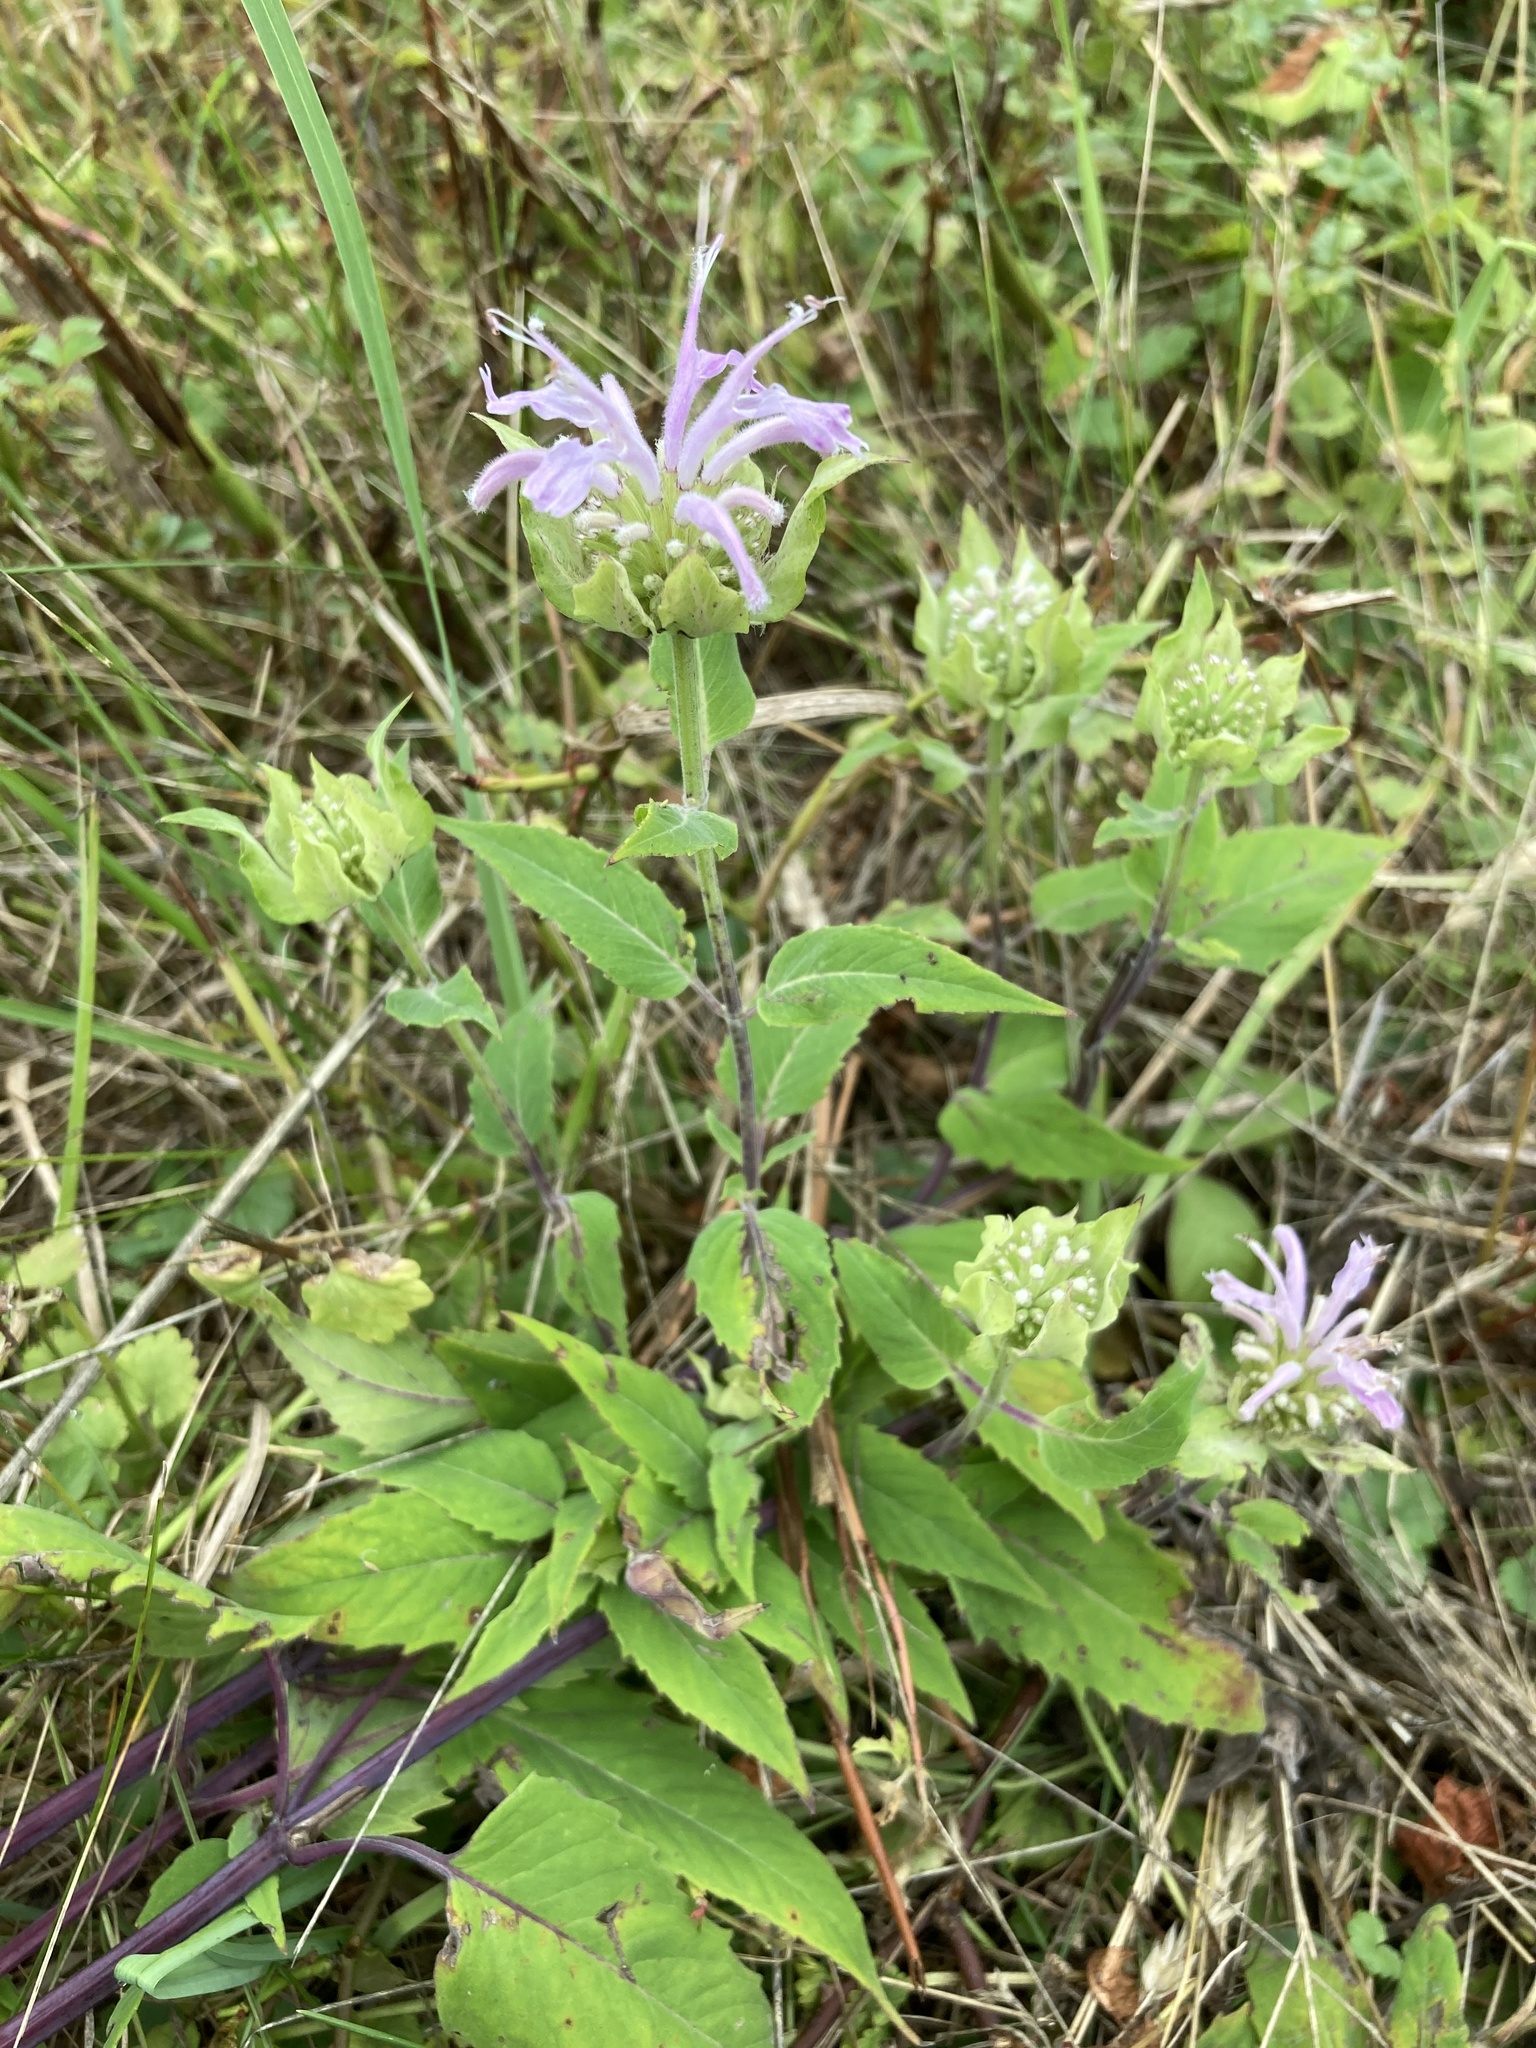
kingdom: Plantae
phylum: Tracheophyta
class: Magnoliopsida
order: Lamiales
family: Lamiaceae
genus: Monarda
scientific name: Monarda fistulosa
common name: Purple beebalm
